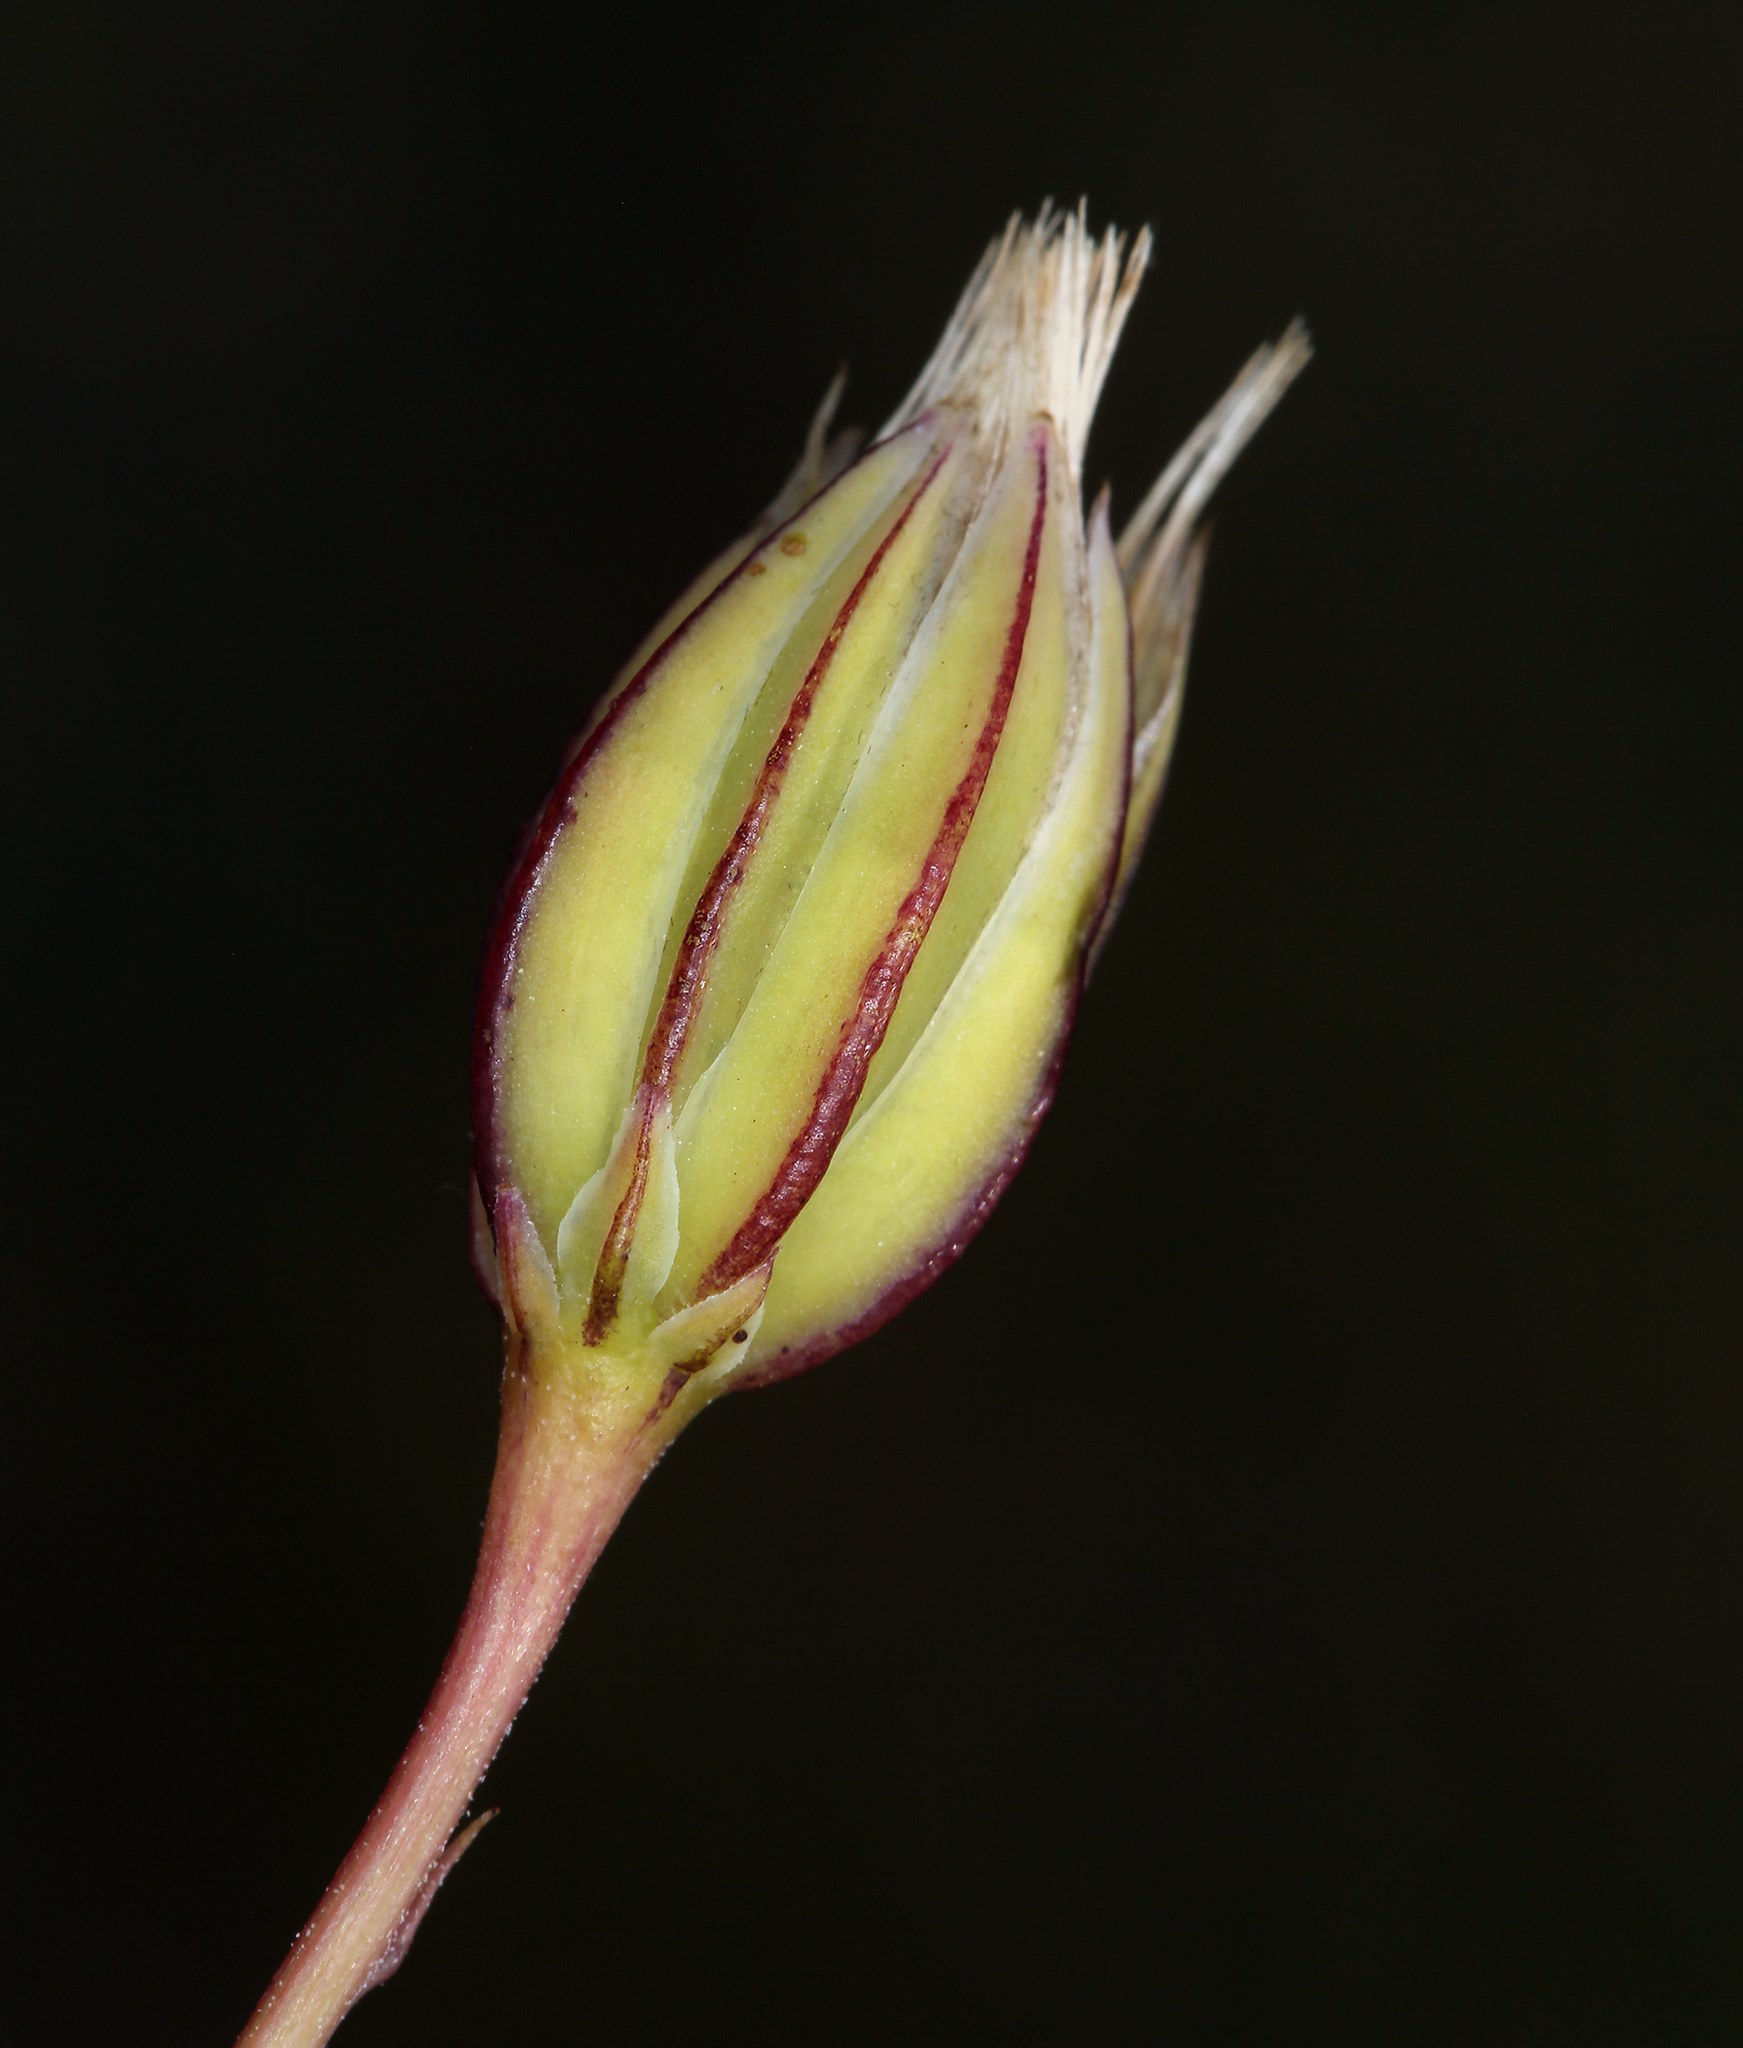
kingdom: Plantae
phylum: Tracheophyta
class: Magnoliopsida
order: Asterales
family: Asteraceae
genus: Microseris
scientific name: Microseris douglasii
